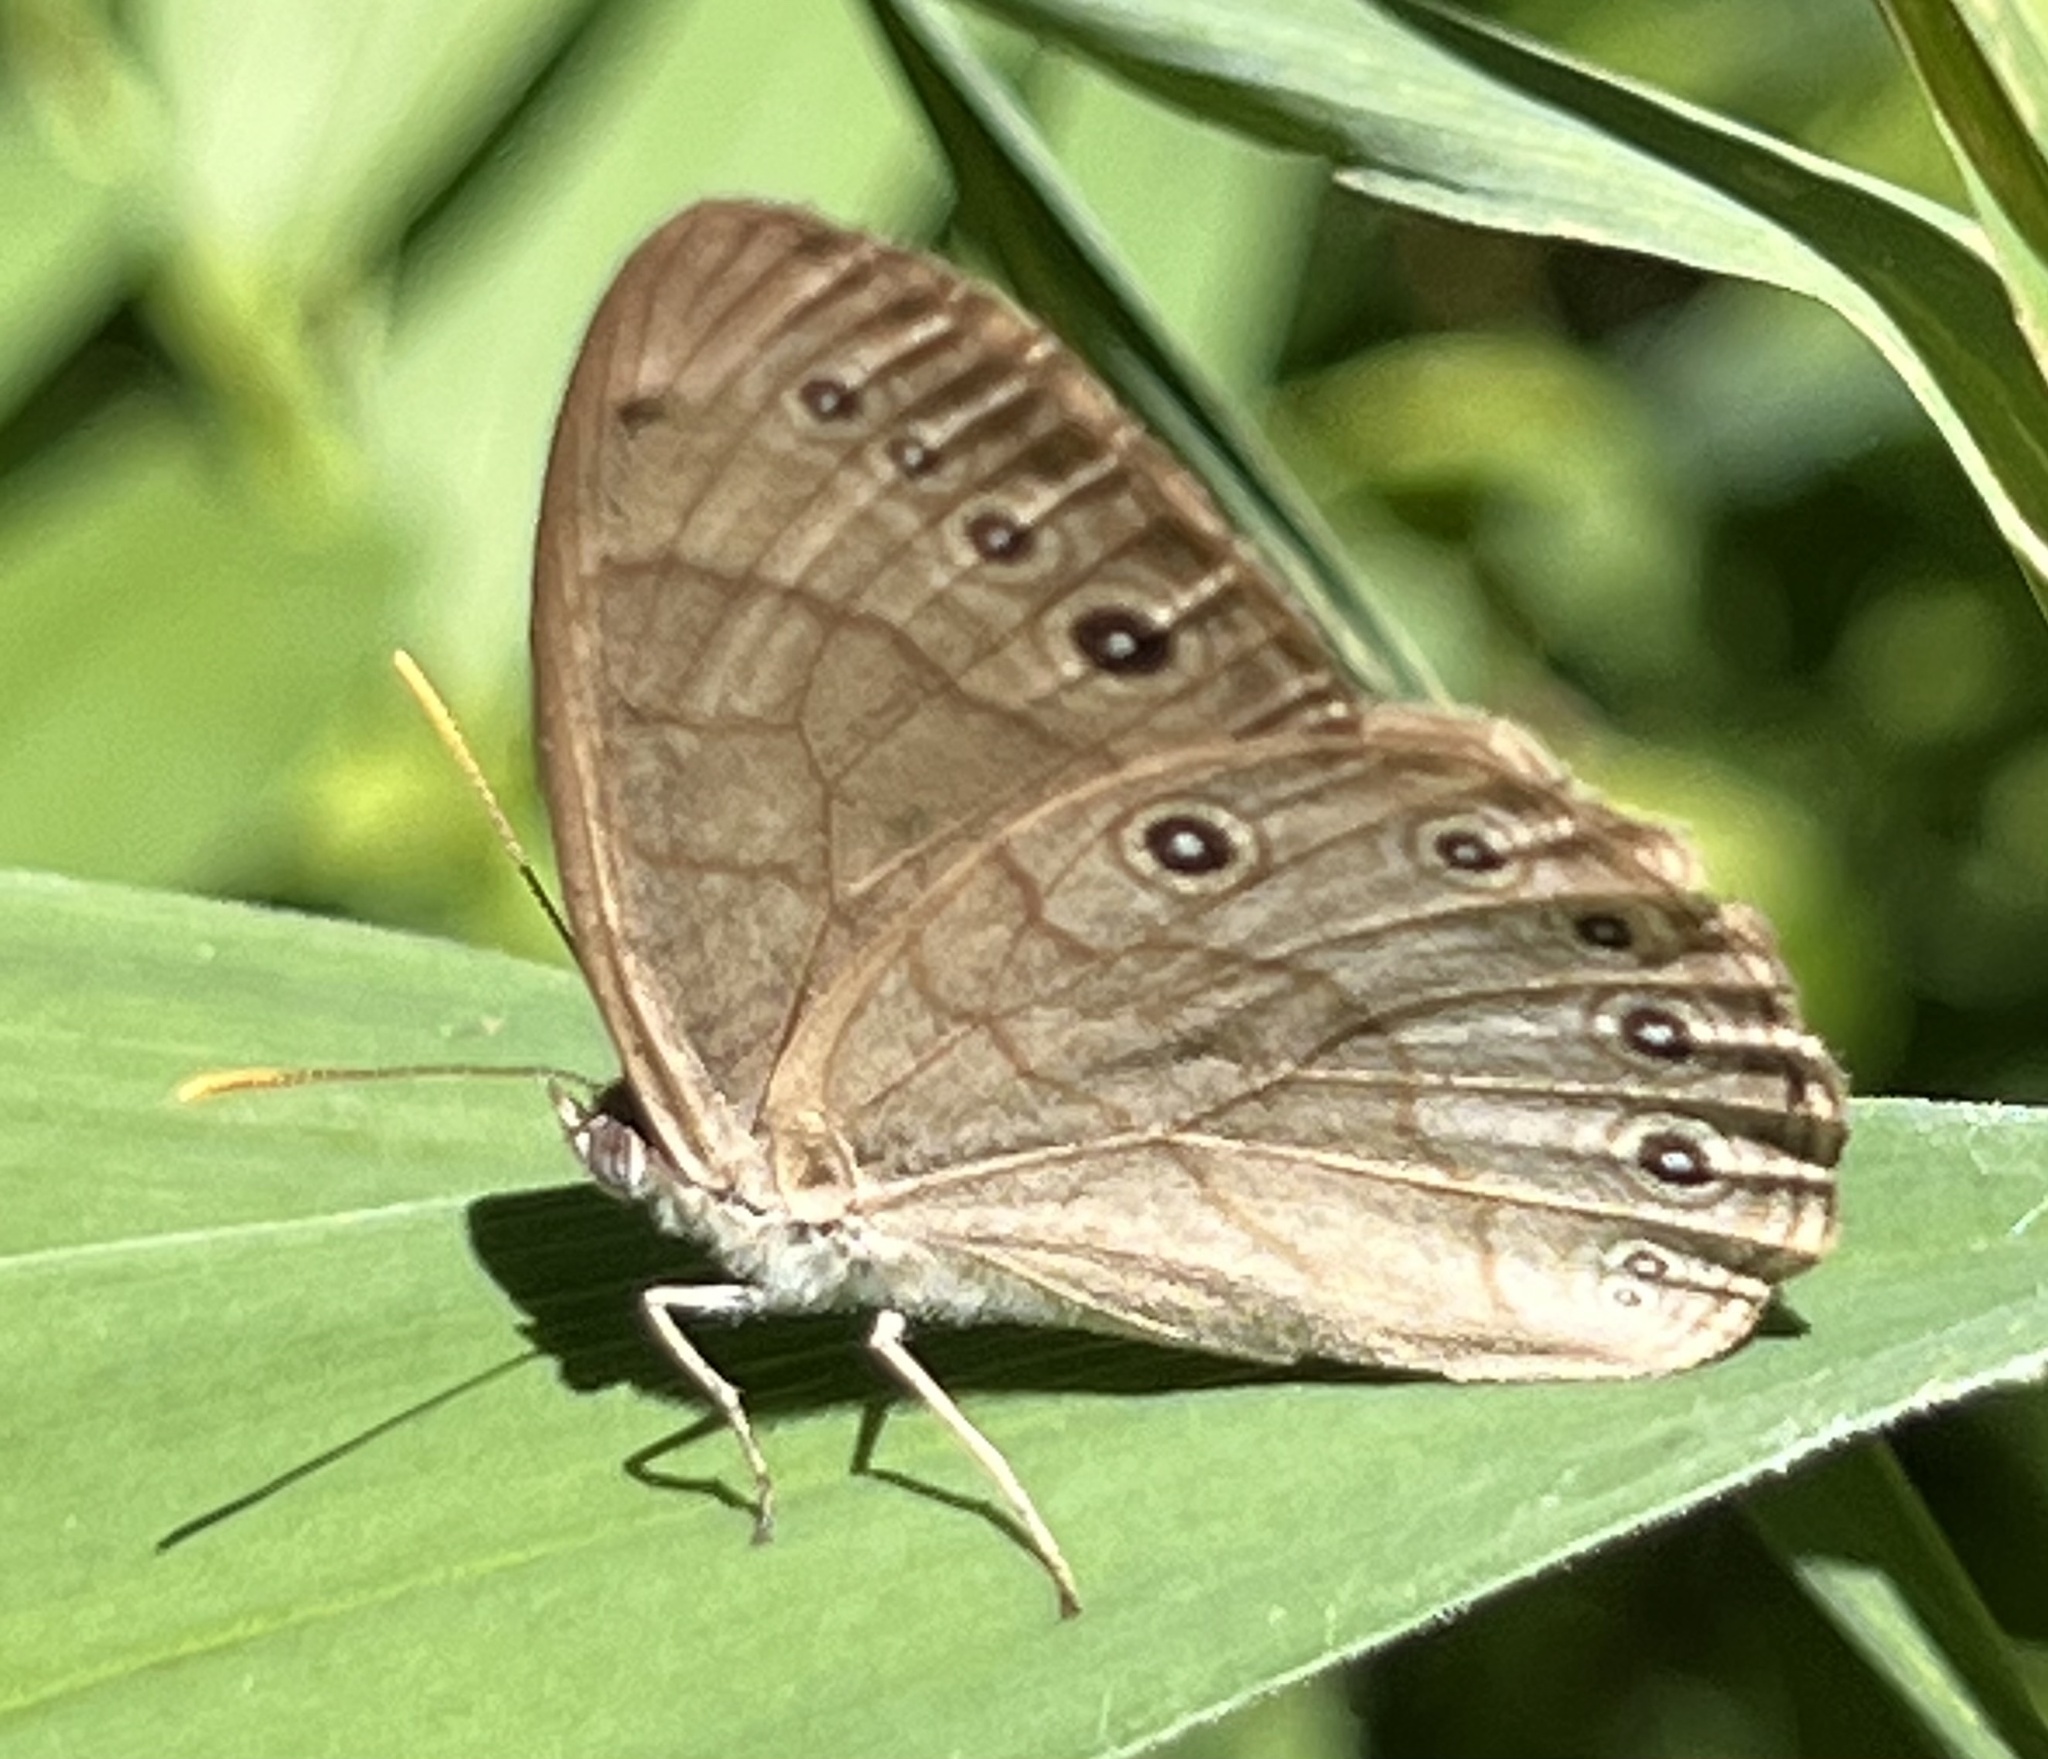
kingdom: Animalia
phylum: Arthropoda
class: Insecta
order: Lepidoptera
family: Nymphalidae
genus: Lethe
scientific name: Lethe eurydice
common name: Eyed brown
